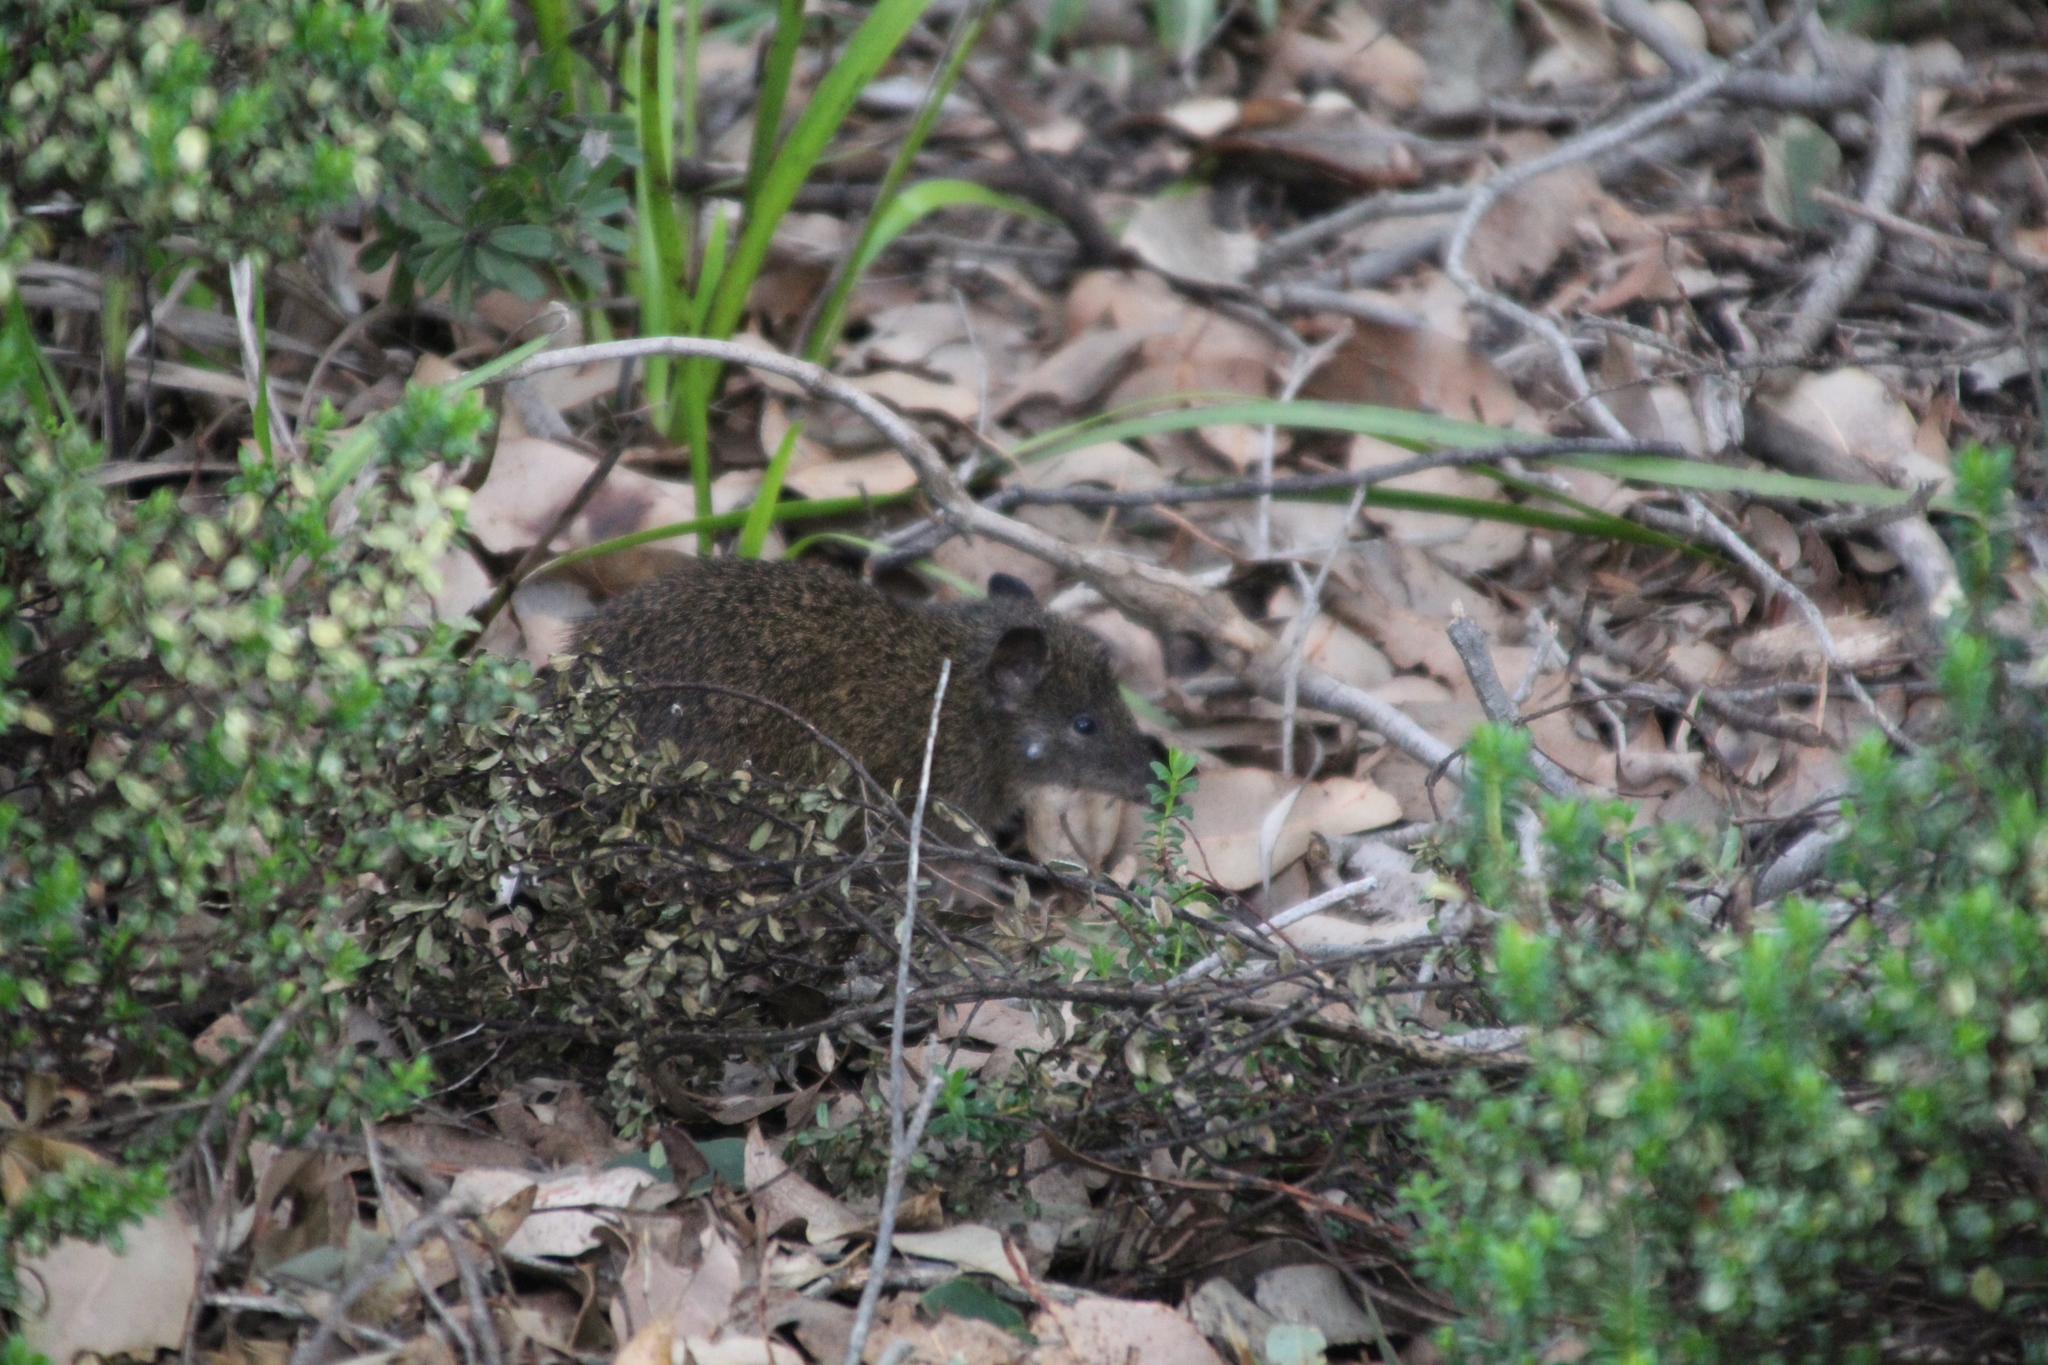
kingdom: Animalia
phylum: Chordata
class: Mammalia
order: Peramelemorphia
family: Peramelidae
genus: Isoodon
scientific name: Isoodon fusciventer
